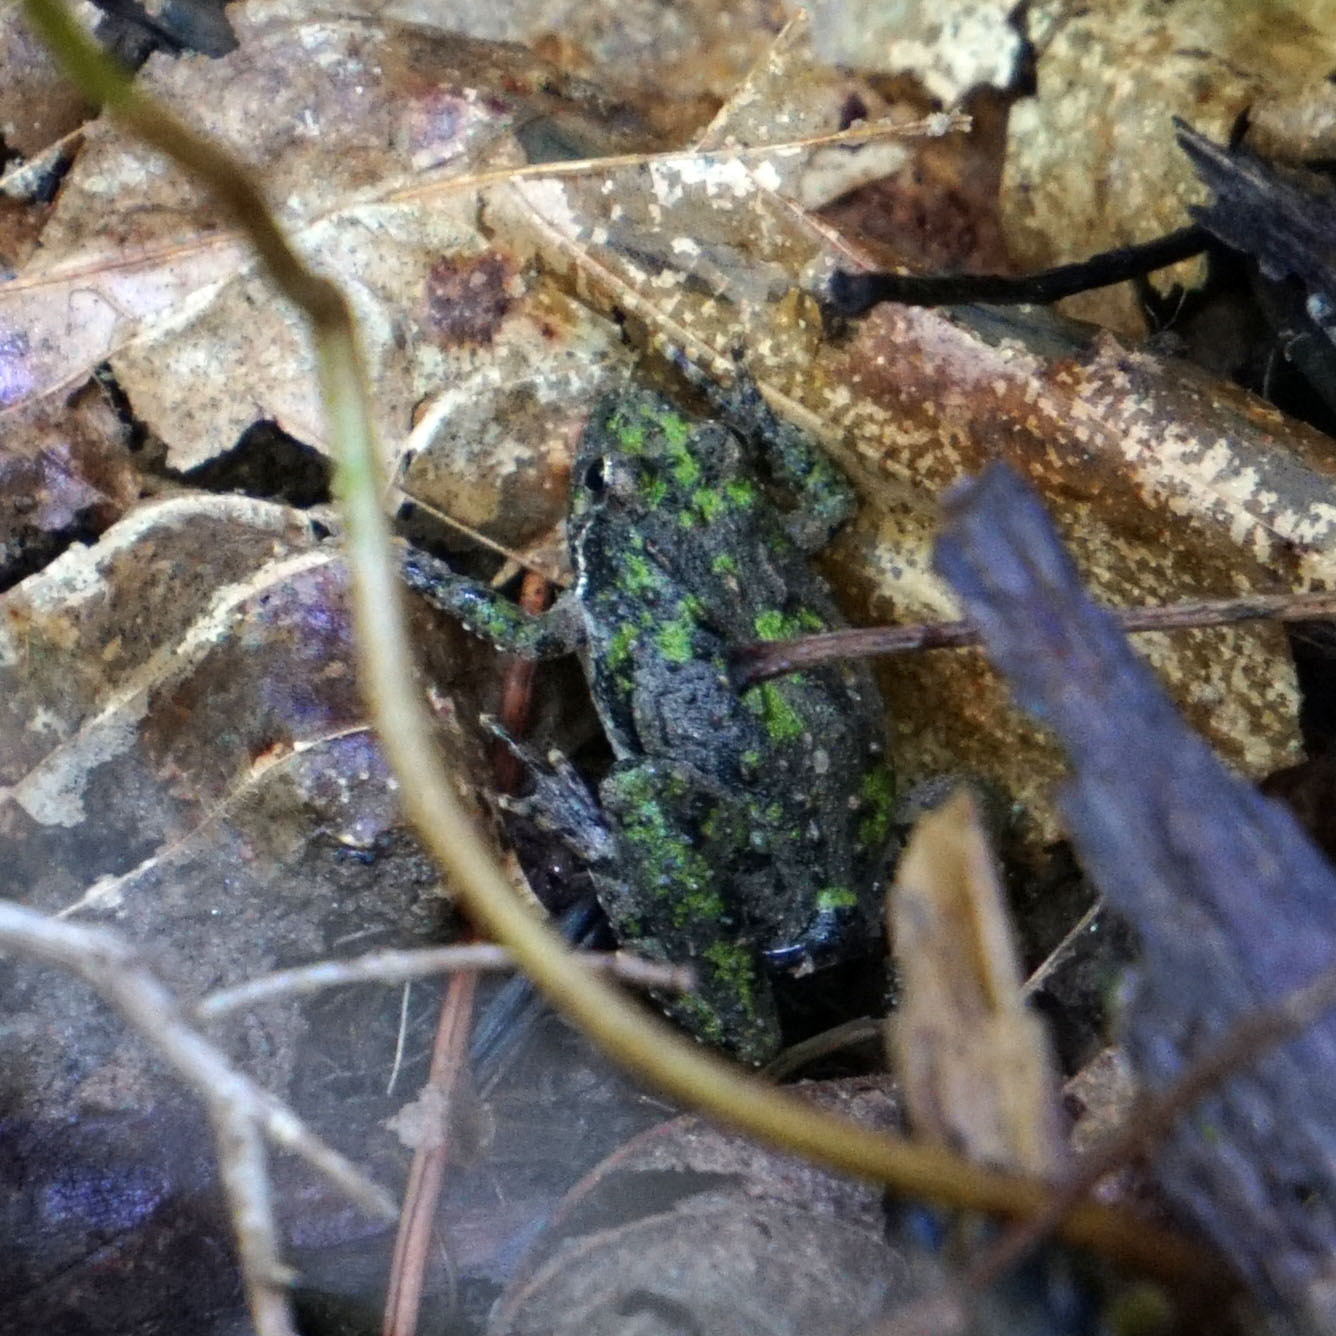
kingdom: Animalia
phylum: Chordata
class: Amphibia
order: Anura
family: Hylidae
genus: Acris
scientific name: Acris crepitans
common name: Northern cricket frog
